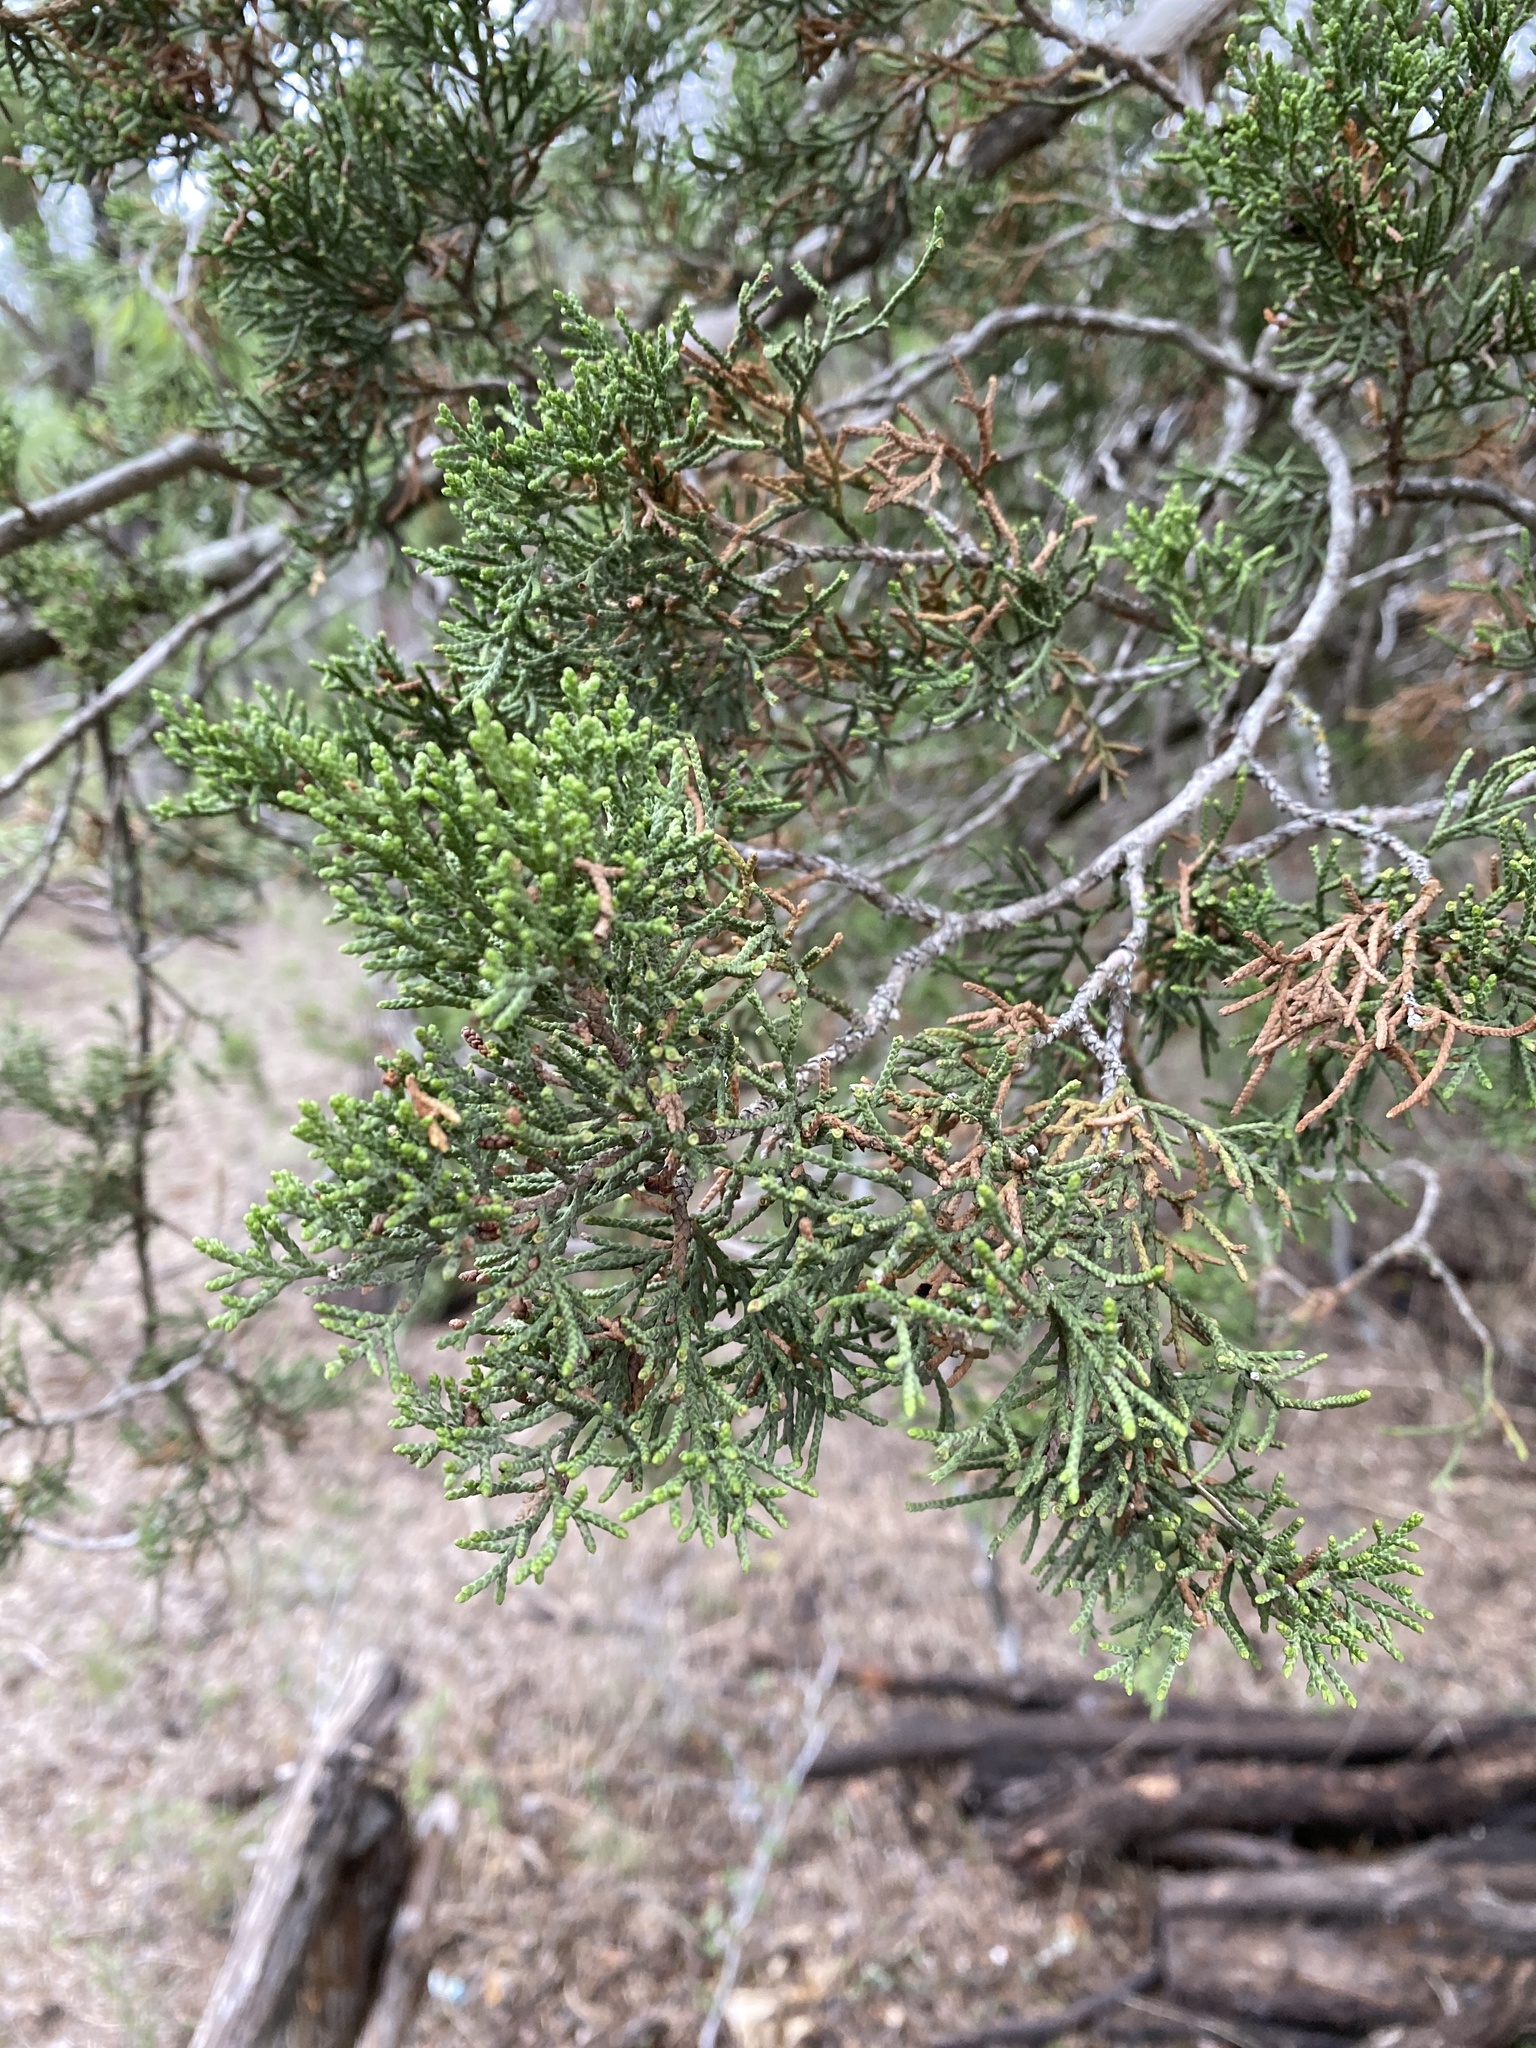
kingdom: Plantae
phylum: Tracheophyta
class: Pinopsida
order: Pinales
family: Cupressaceae
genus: Juniperus
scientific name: Juniperus ashei
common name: Mexican juniper
